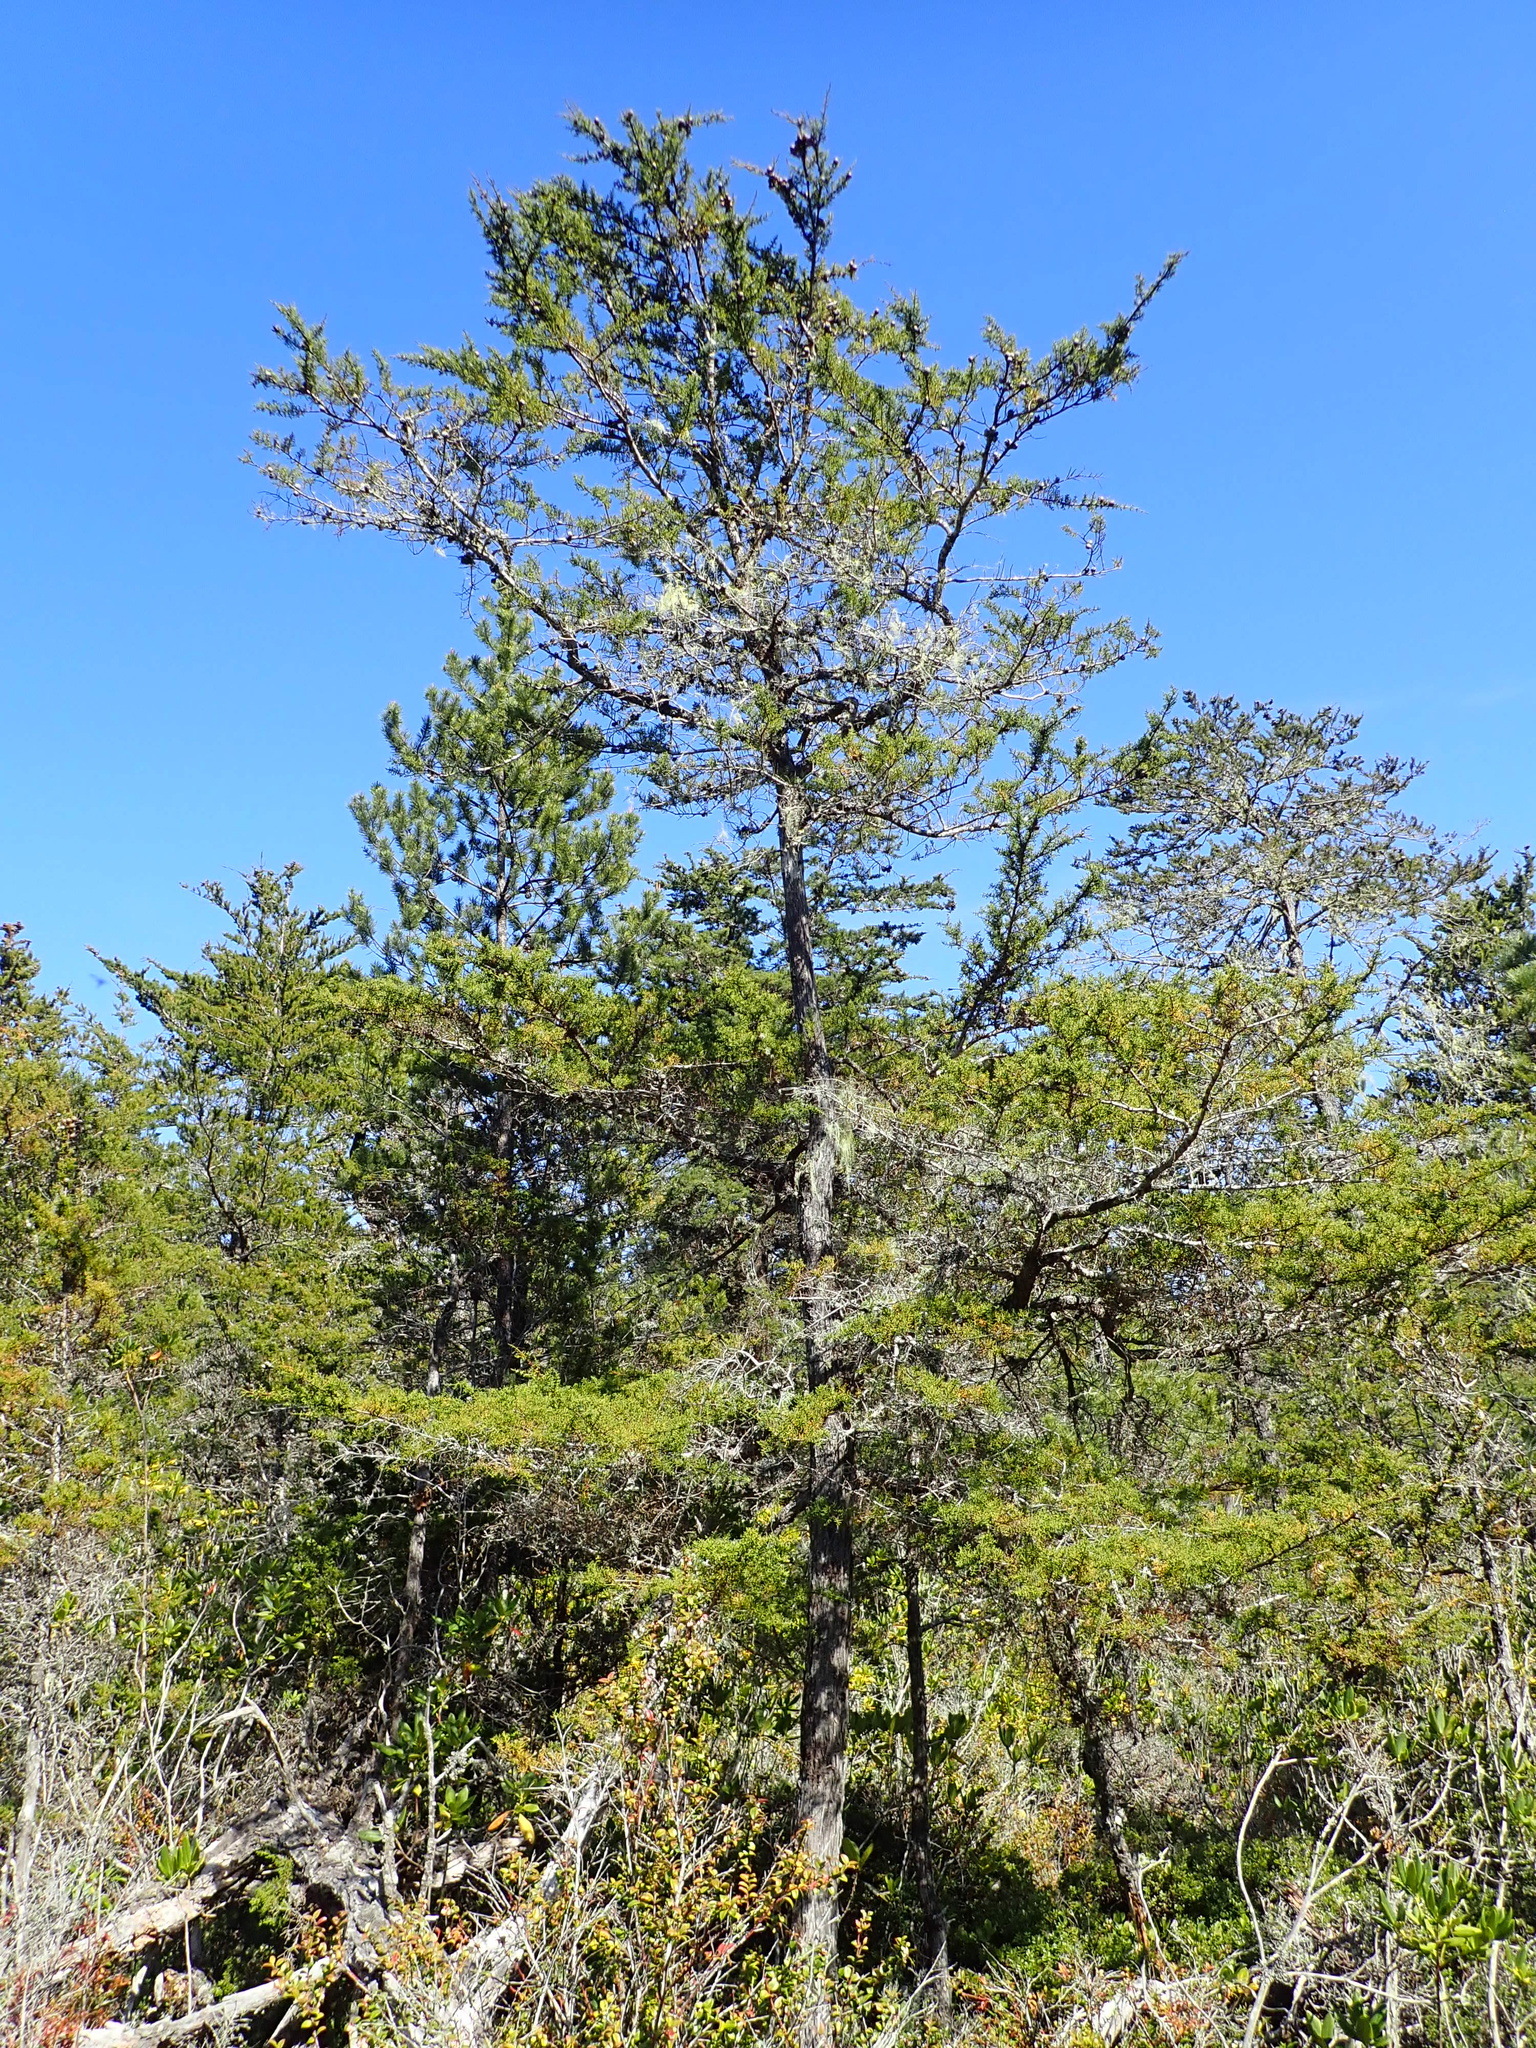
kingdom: Plantae
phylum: Tracheophyta
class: Pinopsida
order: Pinales
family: Cupressaceae
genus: Cupressus
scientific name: Cupressus goveniana
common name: Gowen cypress
